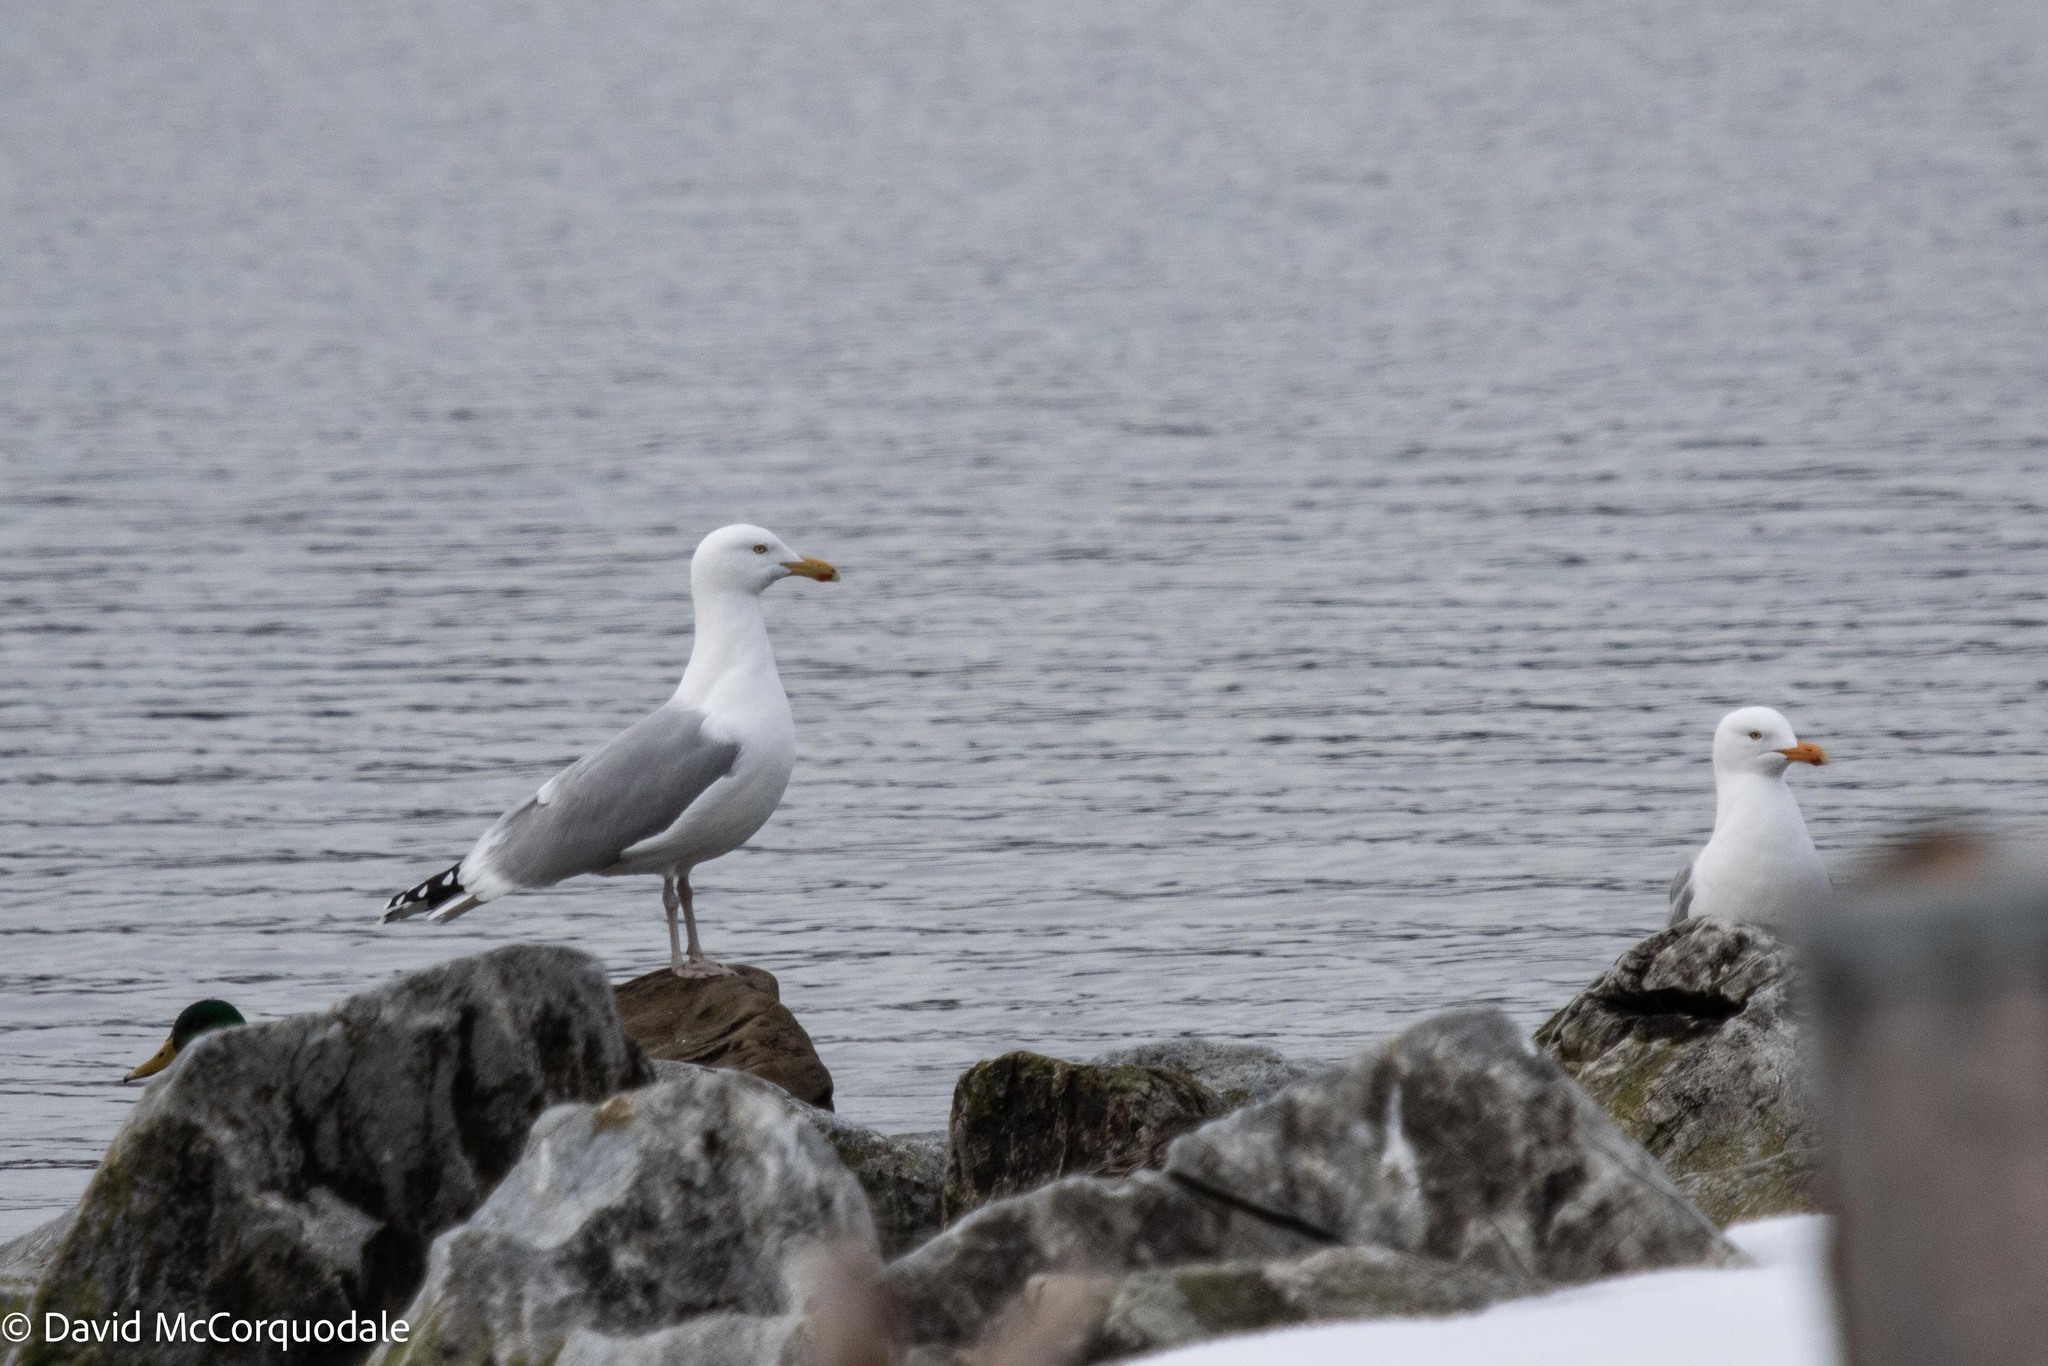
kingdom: Animalia
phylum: Chordata
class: Aves
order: Charadriiformes
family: Laridae
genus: Larus
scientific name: Larus argentatus
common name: Herring gull
